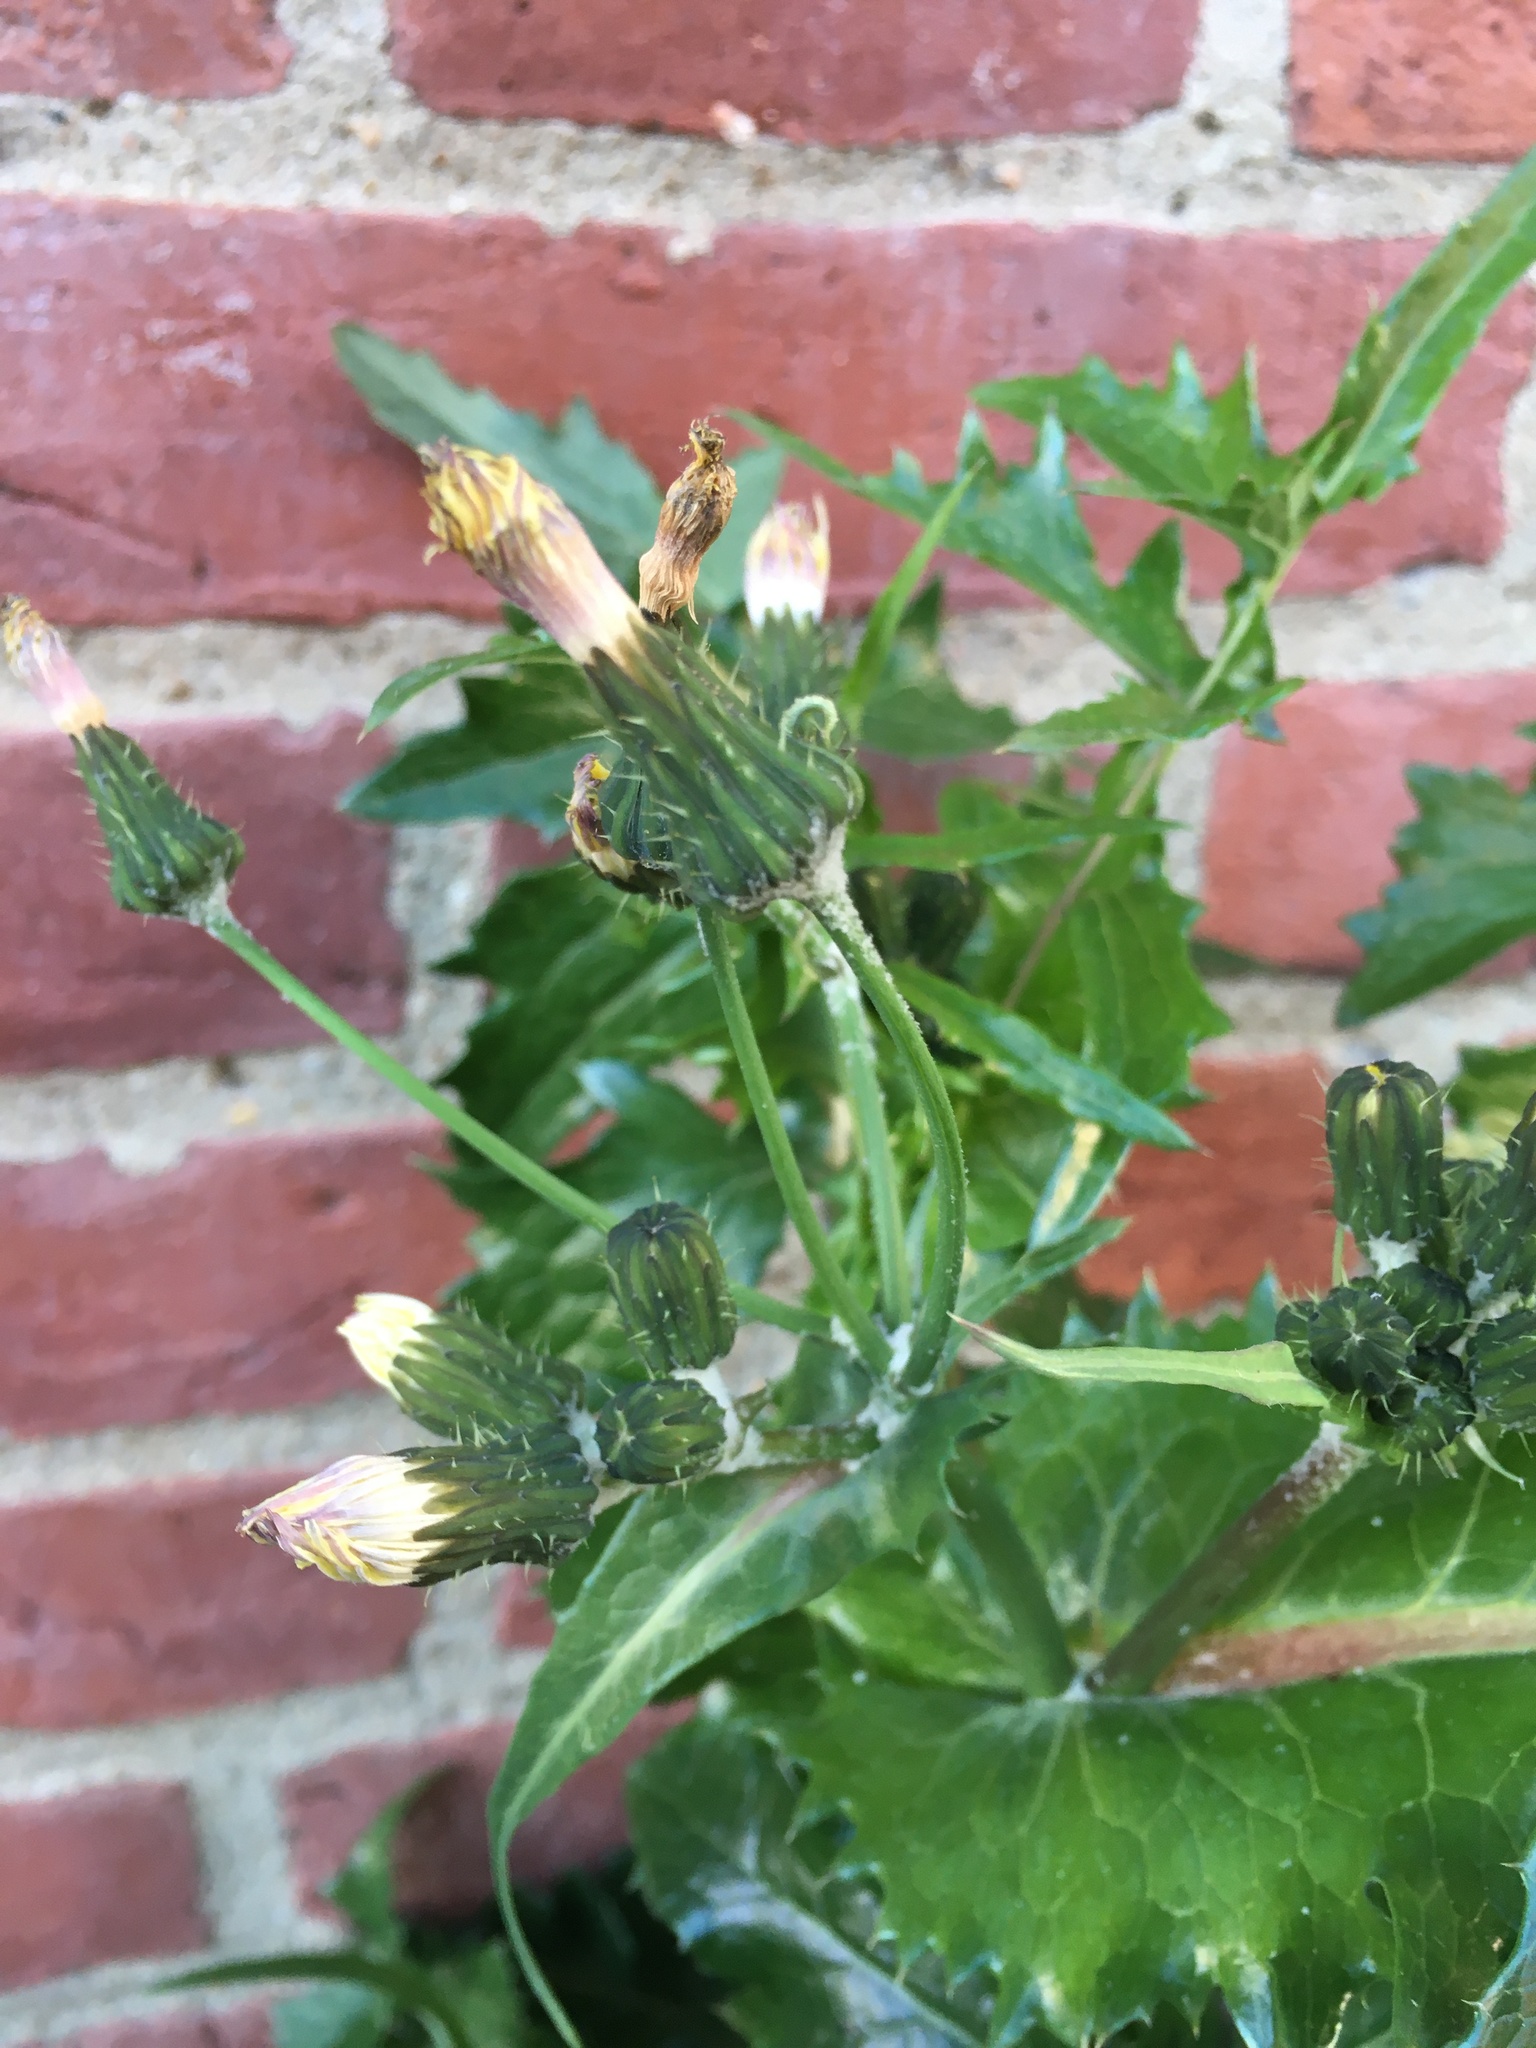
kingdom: Plantae
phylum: Tracheophyta
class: Magnoliopsida
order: Asterales
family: Asteraceae
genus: Sonchus
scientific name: Sonchus asper
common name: Prickly sow-thistle
